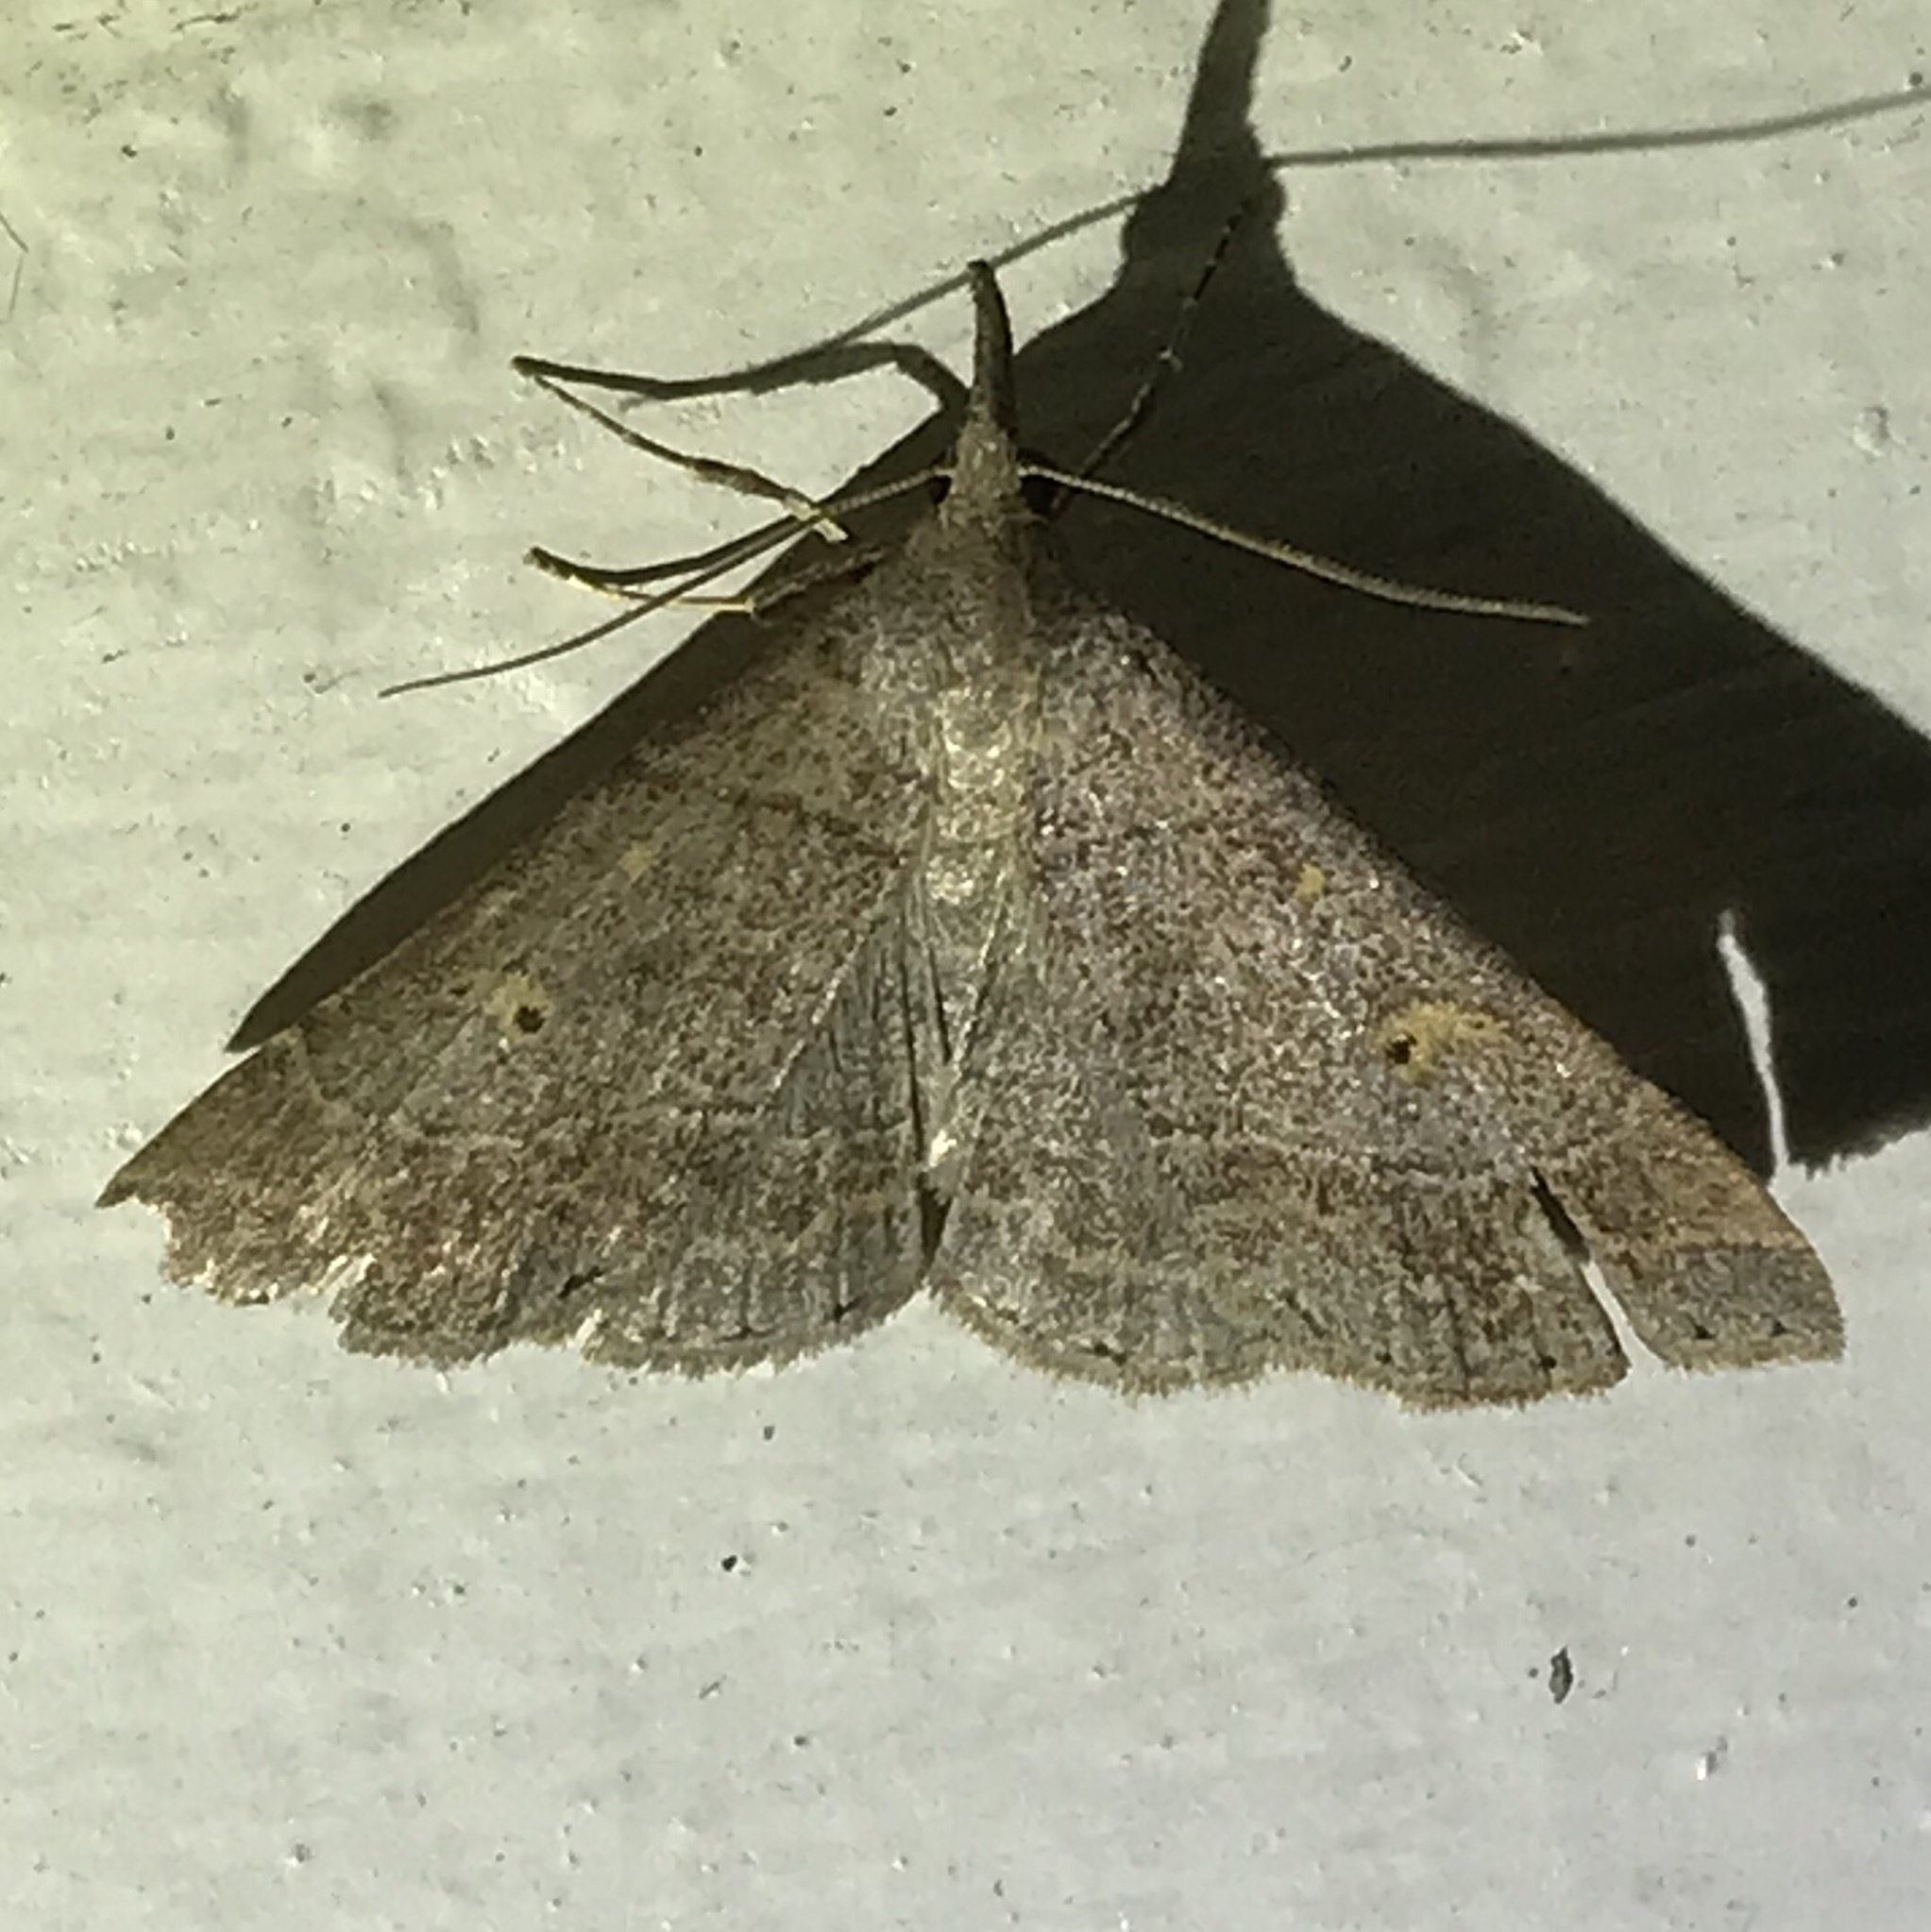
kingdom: Animalia
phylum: Arthropoda
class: Insecta
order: Lepidoptera
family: Erebidae
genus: Renia
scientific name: Renia flavipunctalis
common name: Yellow-spotted renia moth
